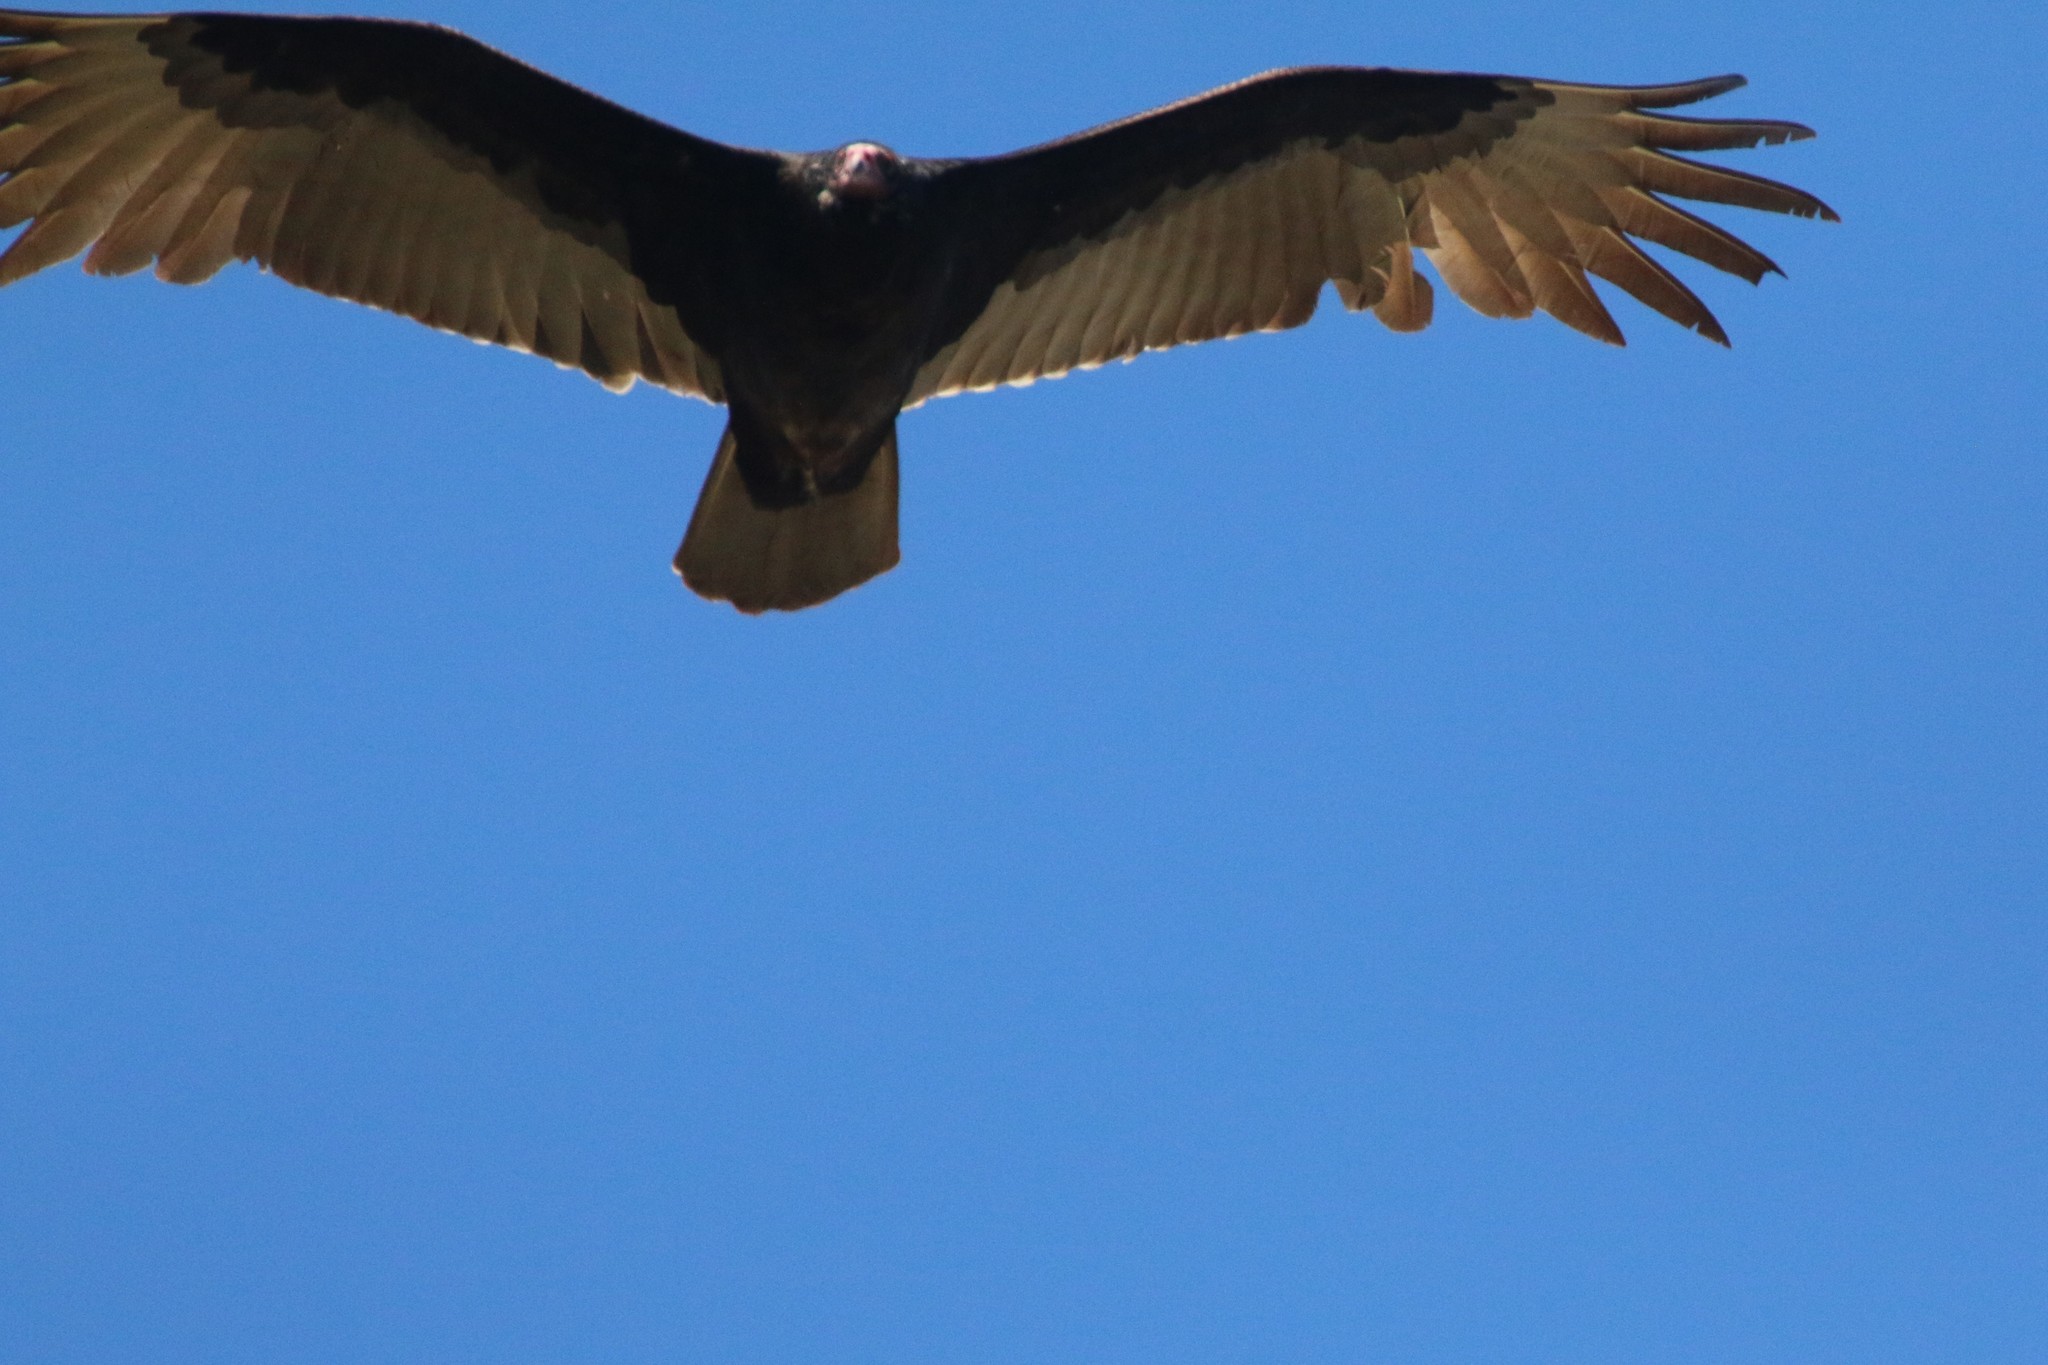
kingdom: Animalia
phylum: Chordata
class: Aves
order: Accipitriformes
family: Cathartidae
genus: Cathartes
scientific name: Cathartes aura
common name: Turkey vulture
